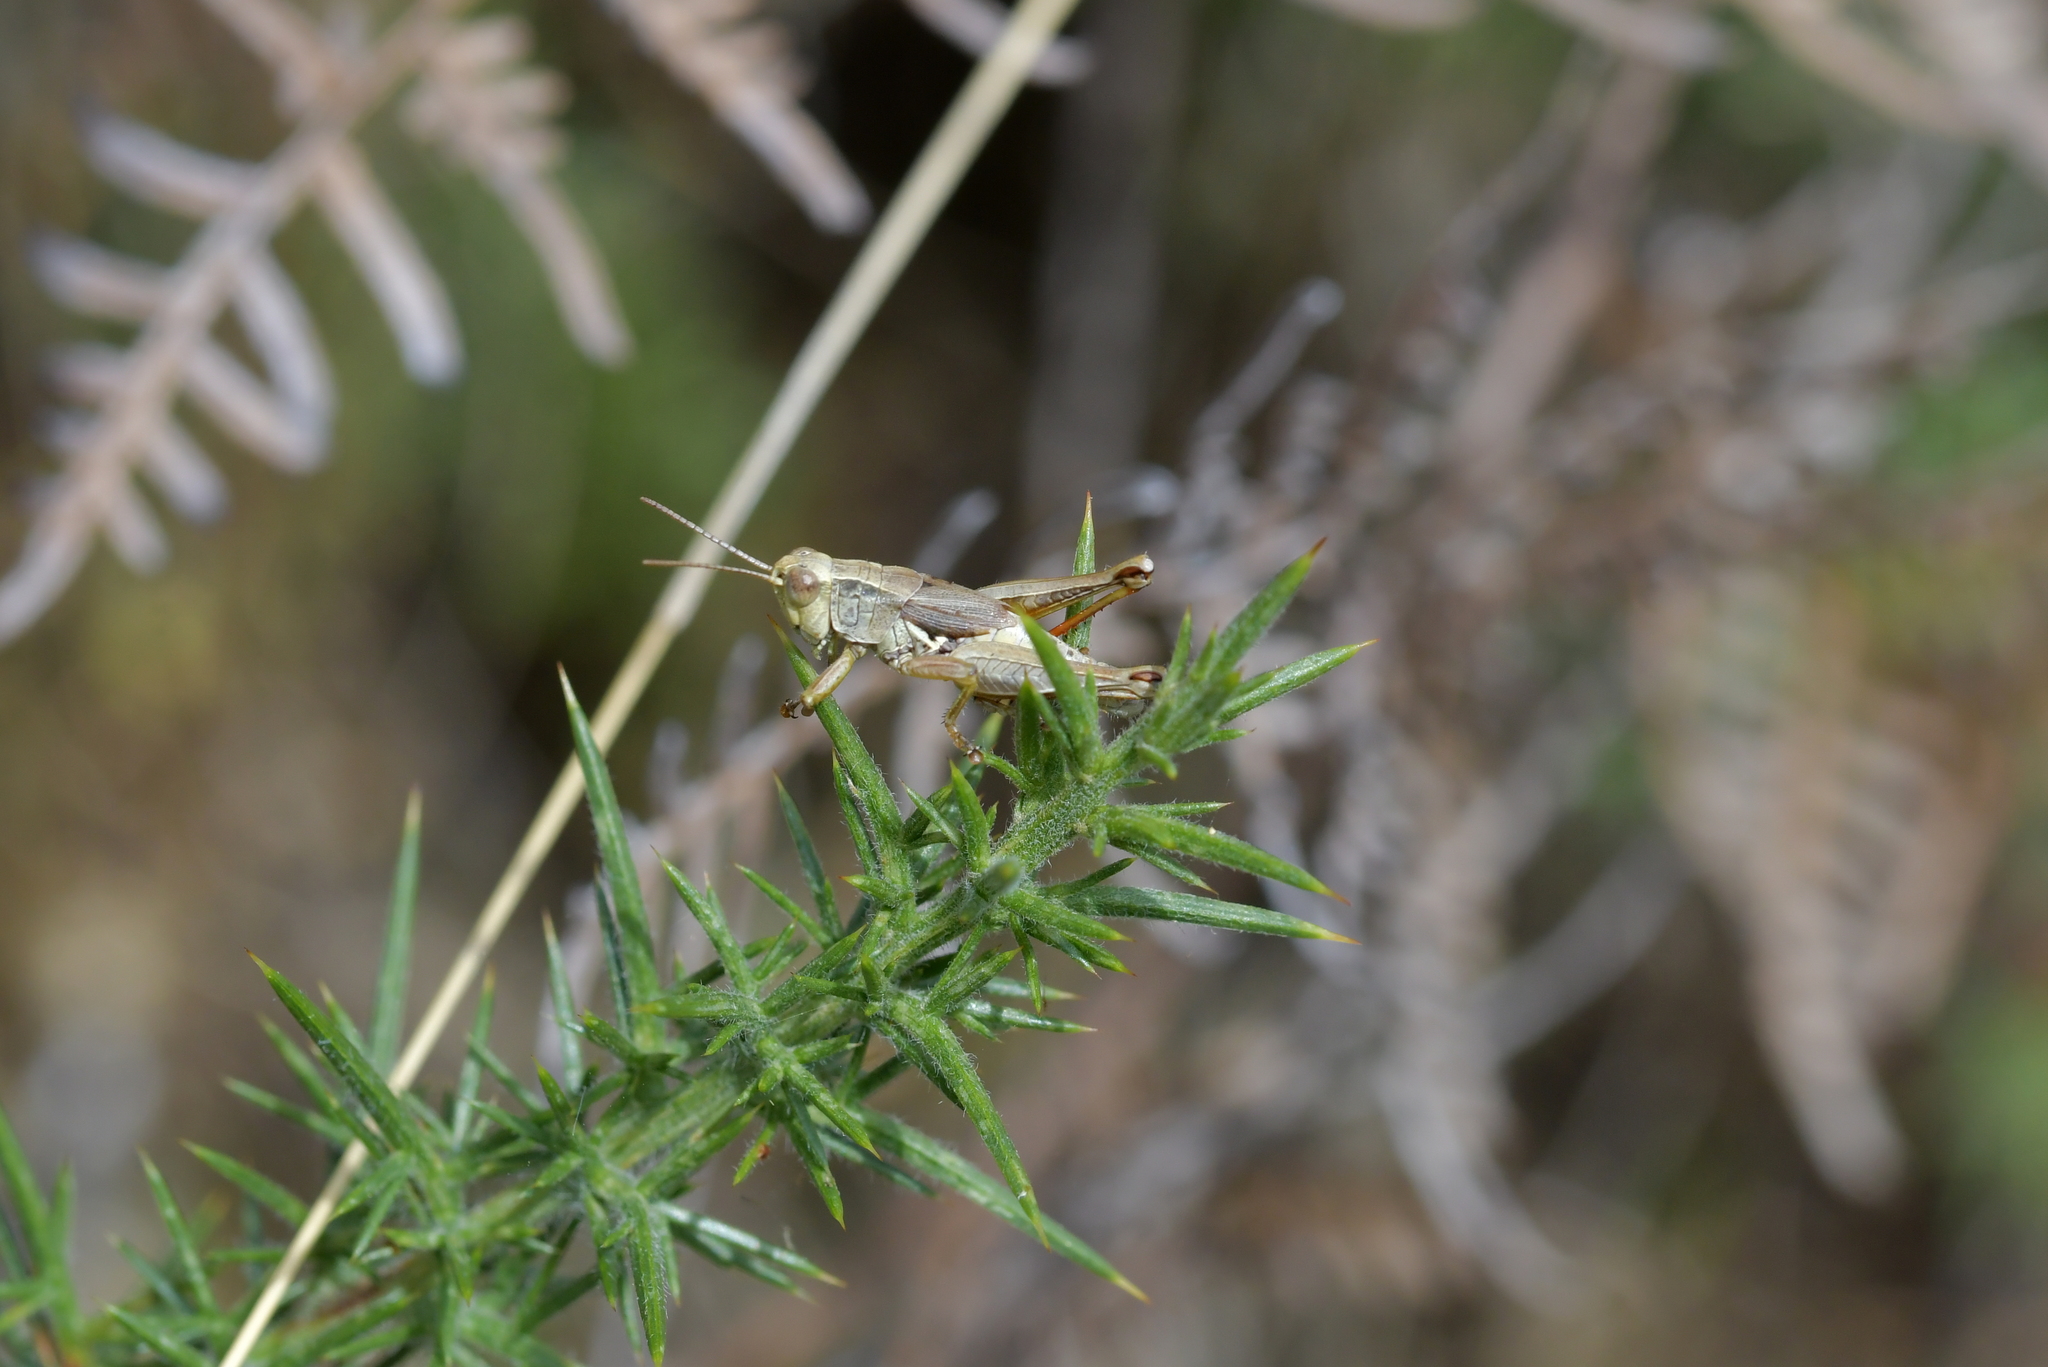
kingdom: Animalia
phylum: Arthropoda
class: Insecta
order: Orthoptera
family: Acrididae
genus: Phaulacridium
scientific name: Phaulacridium marginale
